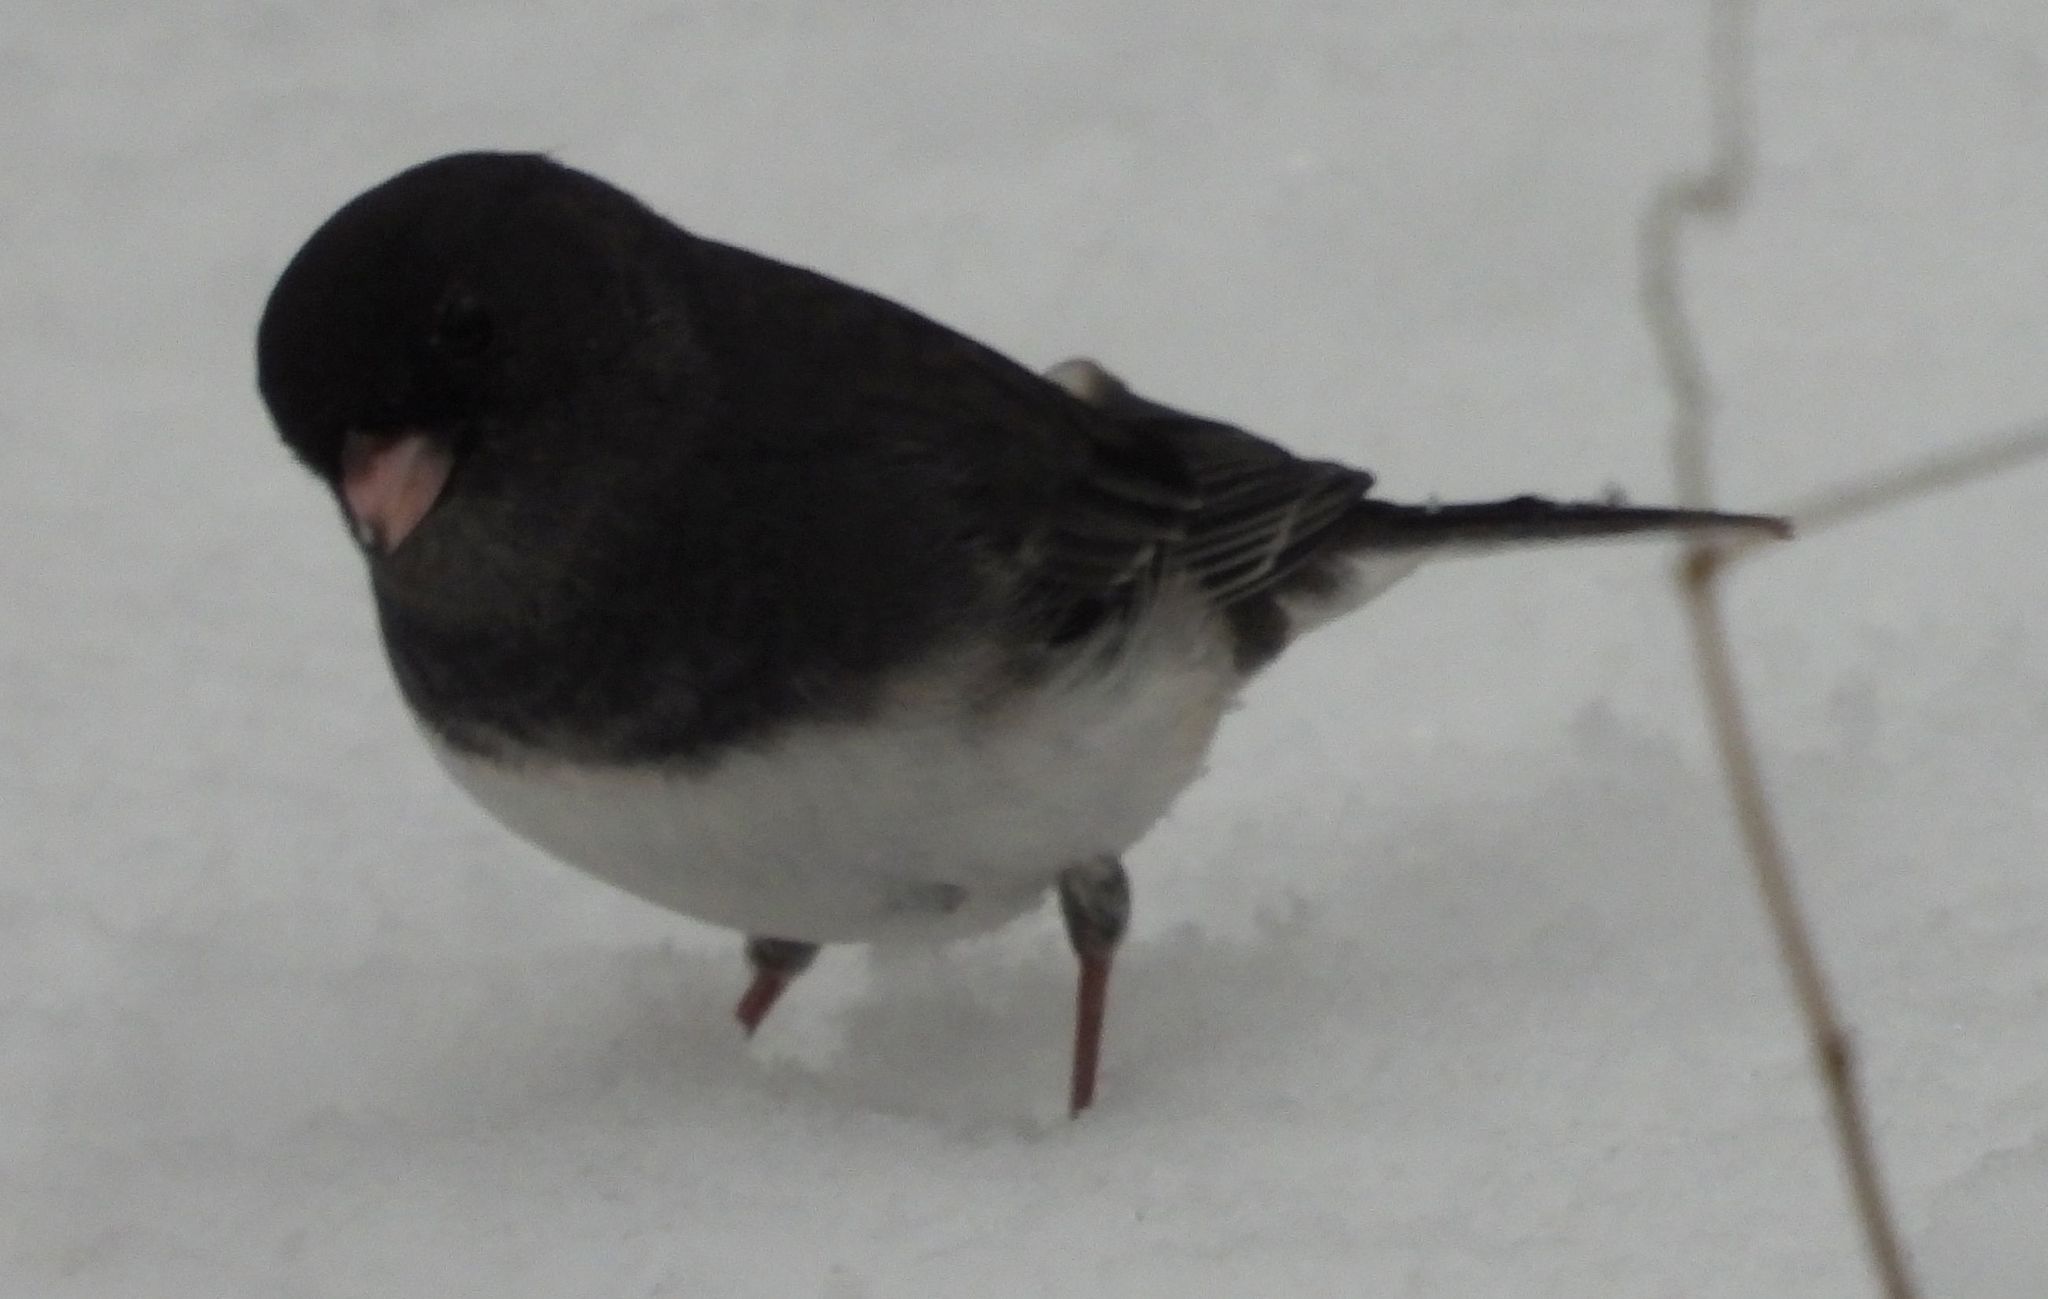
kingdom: Animalia
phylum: Chordata
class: Aves
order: Passeriformes
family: Passerellidae
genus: Junco
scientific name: Junco hyemalis
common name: Dark-eyed junco
